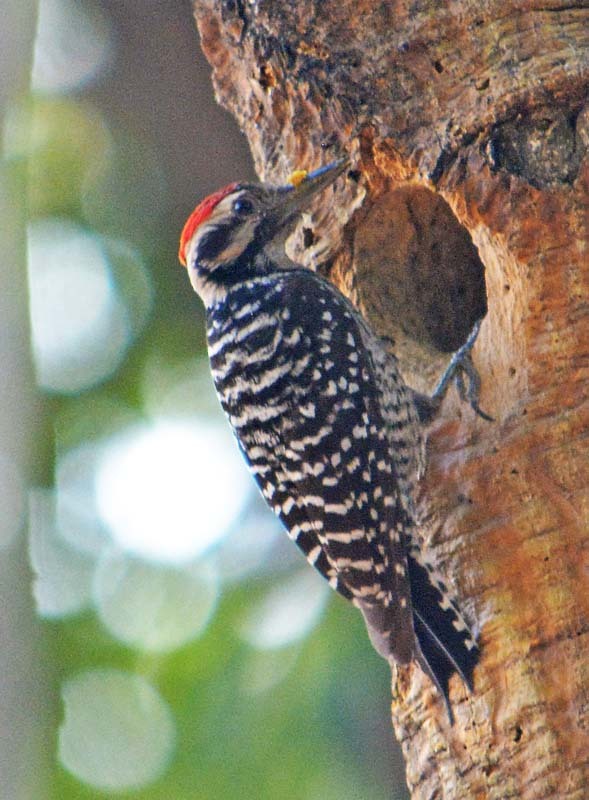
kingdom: Animalia
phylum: Chordata
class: Aves
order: Piciformes
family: Picidae
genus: Dryobates
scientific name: Dryobates scalaris
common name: Ladder-backed woodpecker
